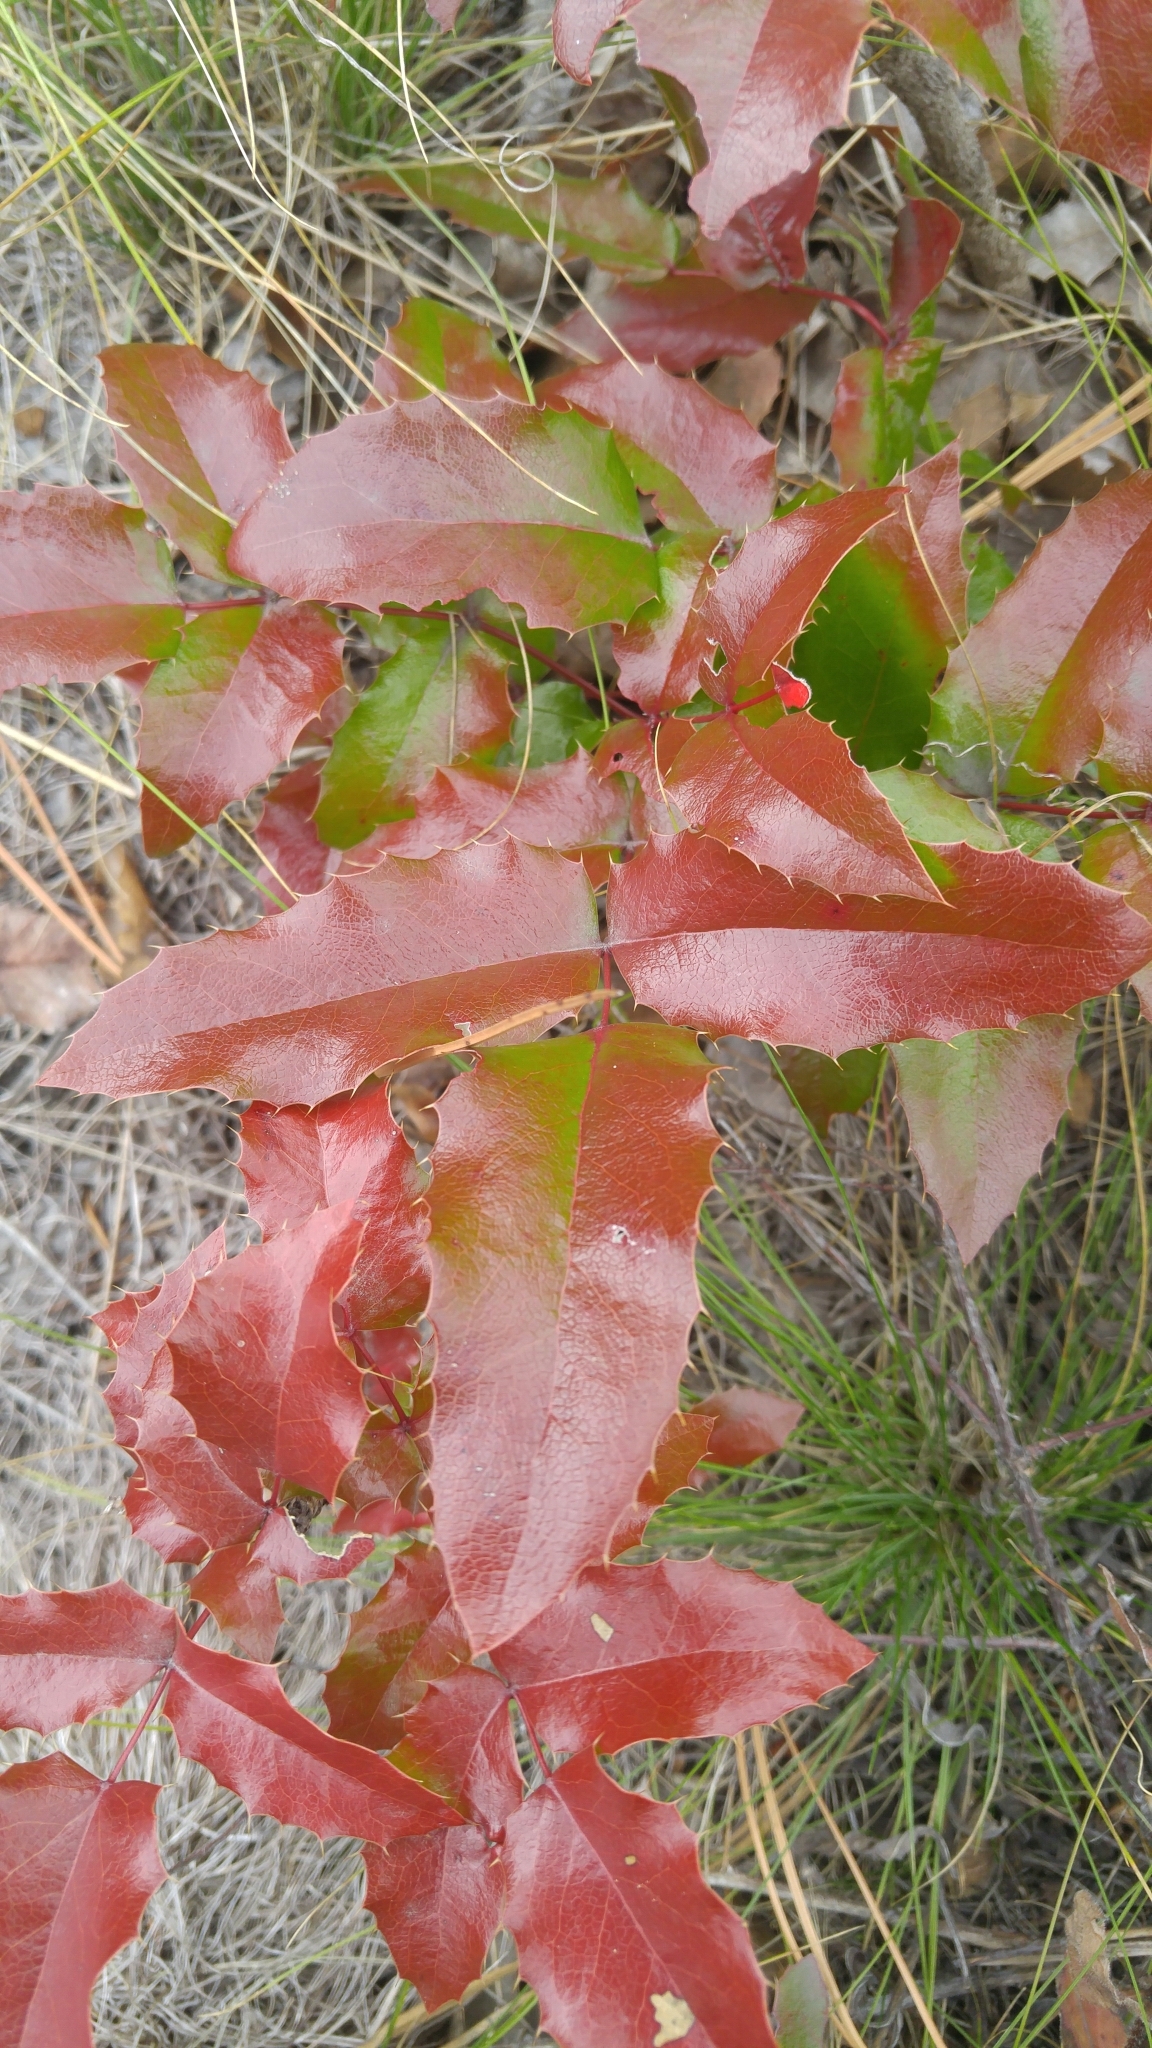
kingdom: Plantae
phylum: Tracheophyta
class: Magnoliopsida
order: Ranunculales
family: Berberidaceae
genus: Mahonia
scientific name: Mahonia aquifolium
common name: Oregon-grape
